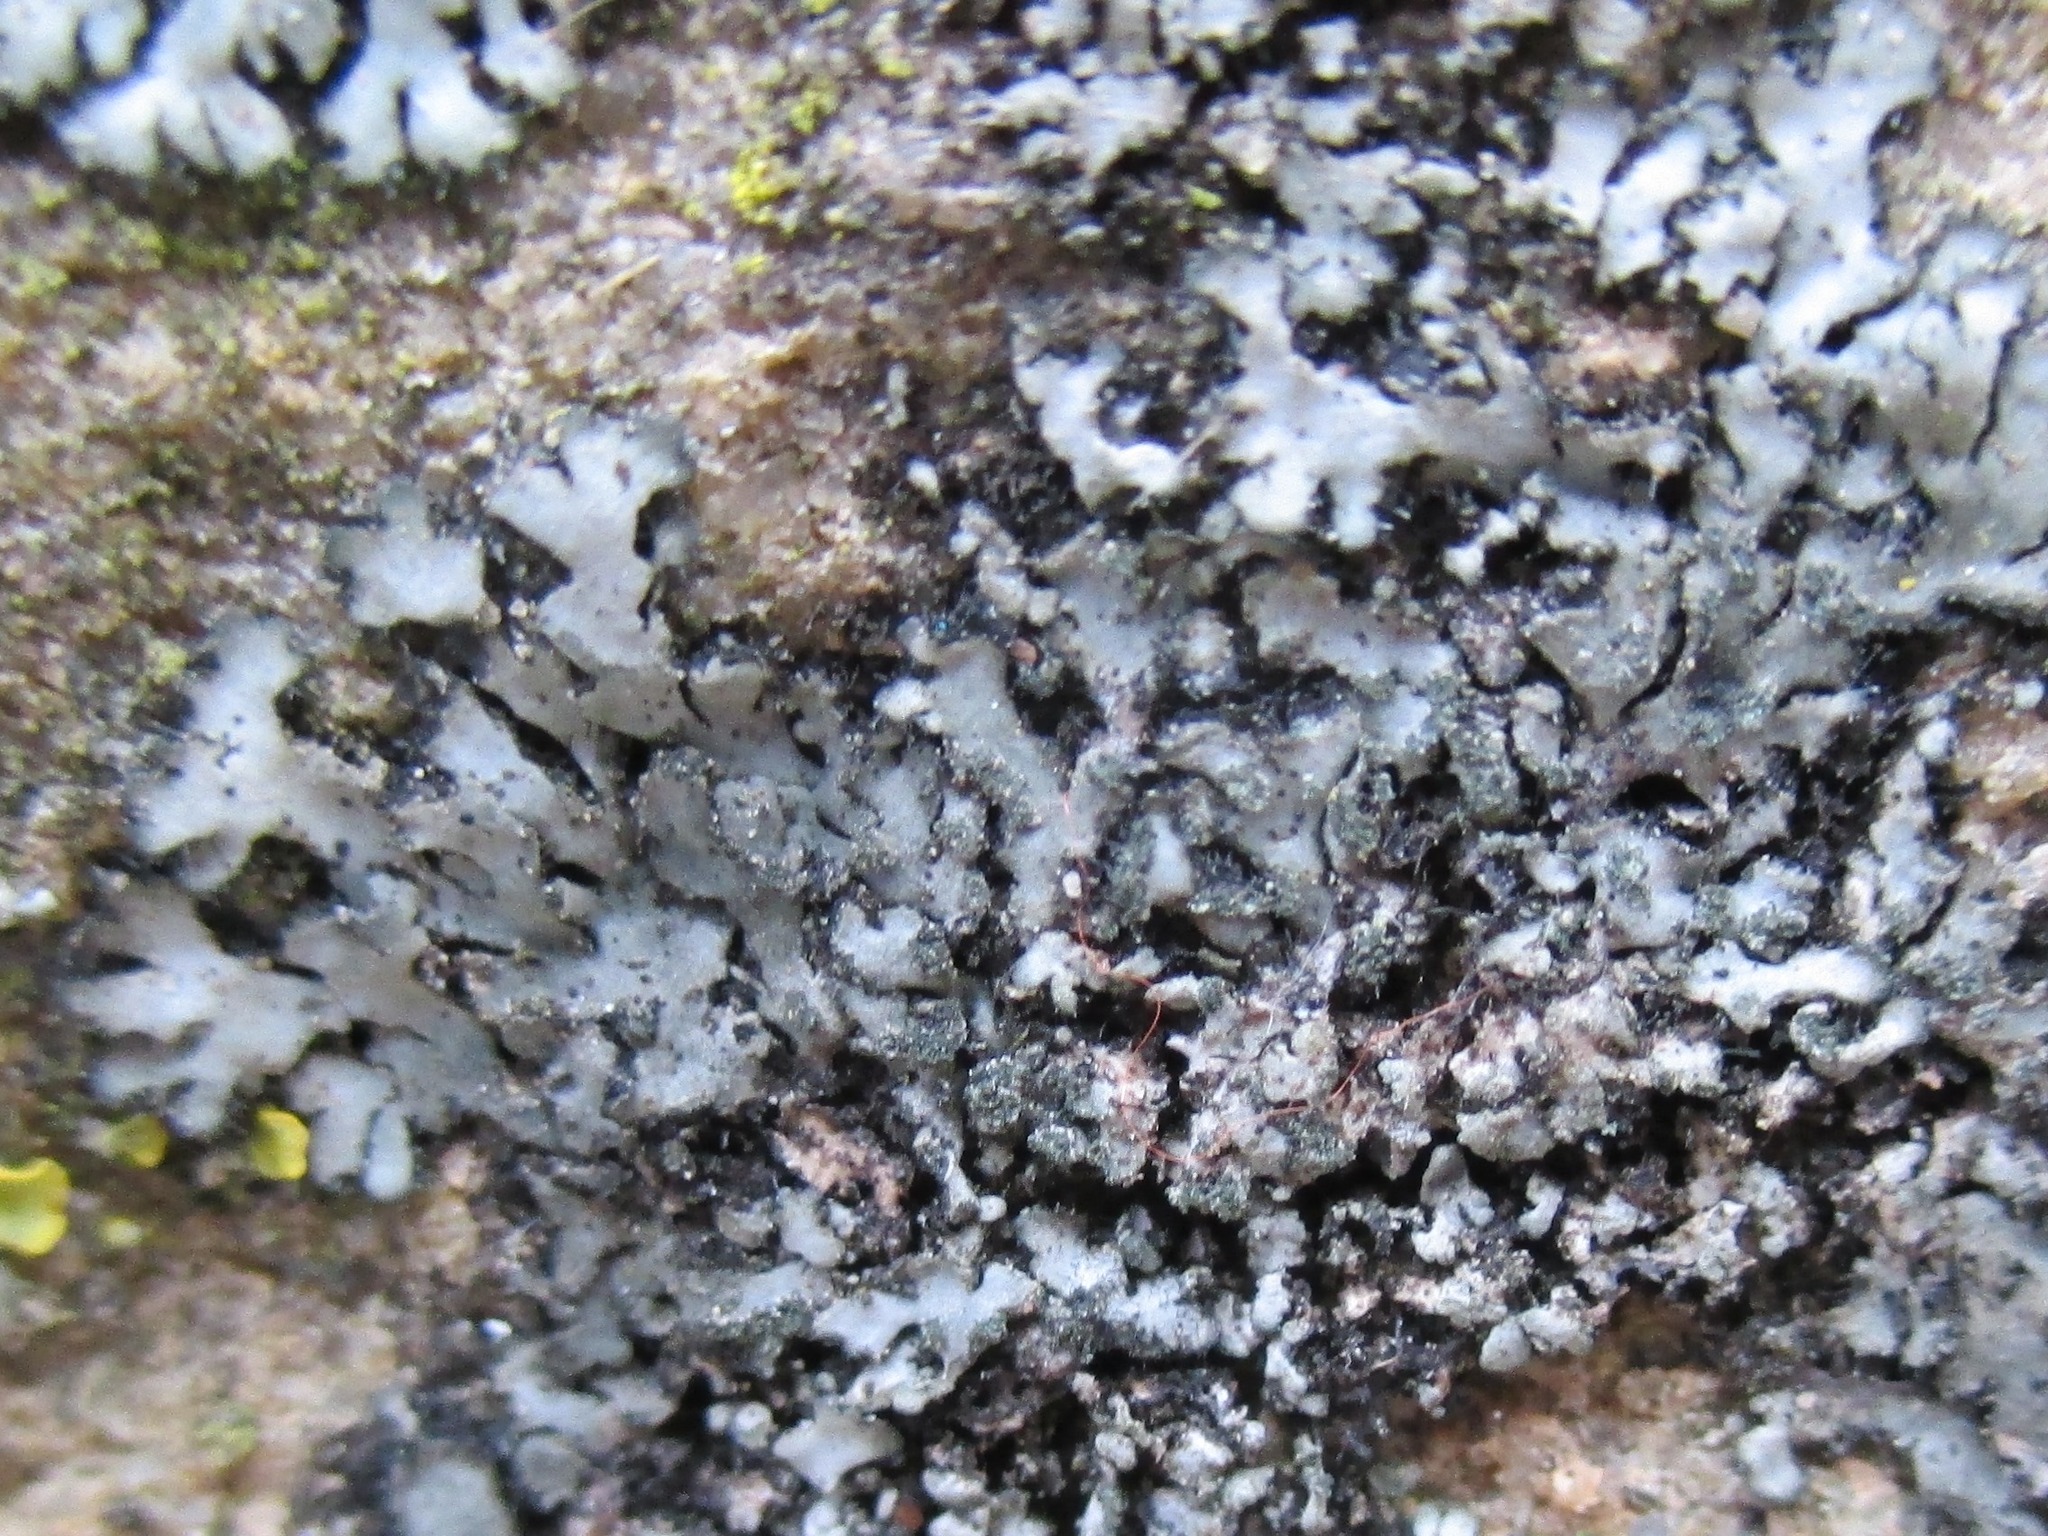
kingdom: Fungi
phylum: Ascomycota
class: Lecanoromycetes
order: Caliciales
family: Physciaceae
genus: Phaeophyscia
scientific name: Phaeophyscia orbicularis
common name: Mealy shadow lichen
